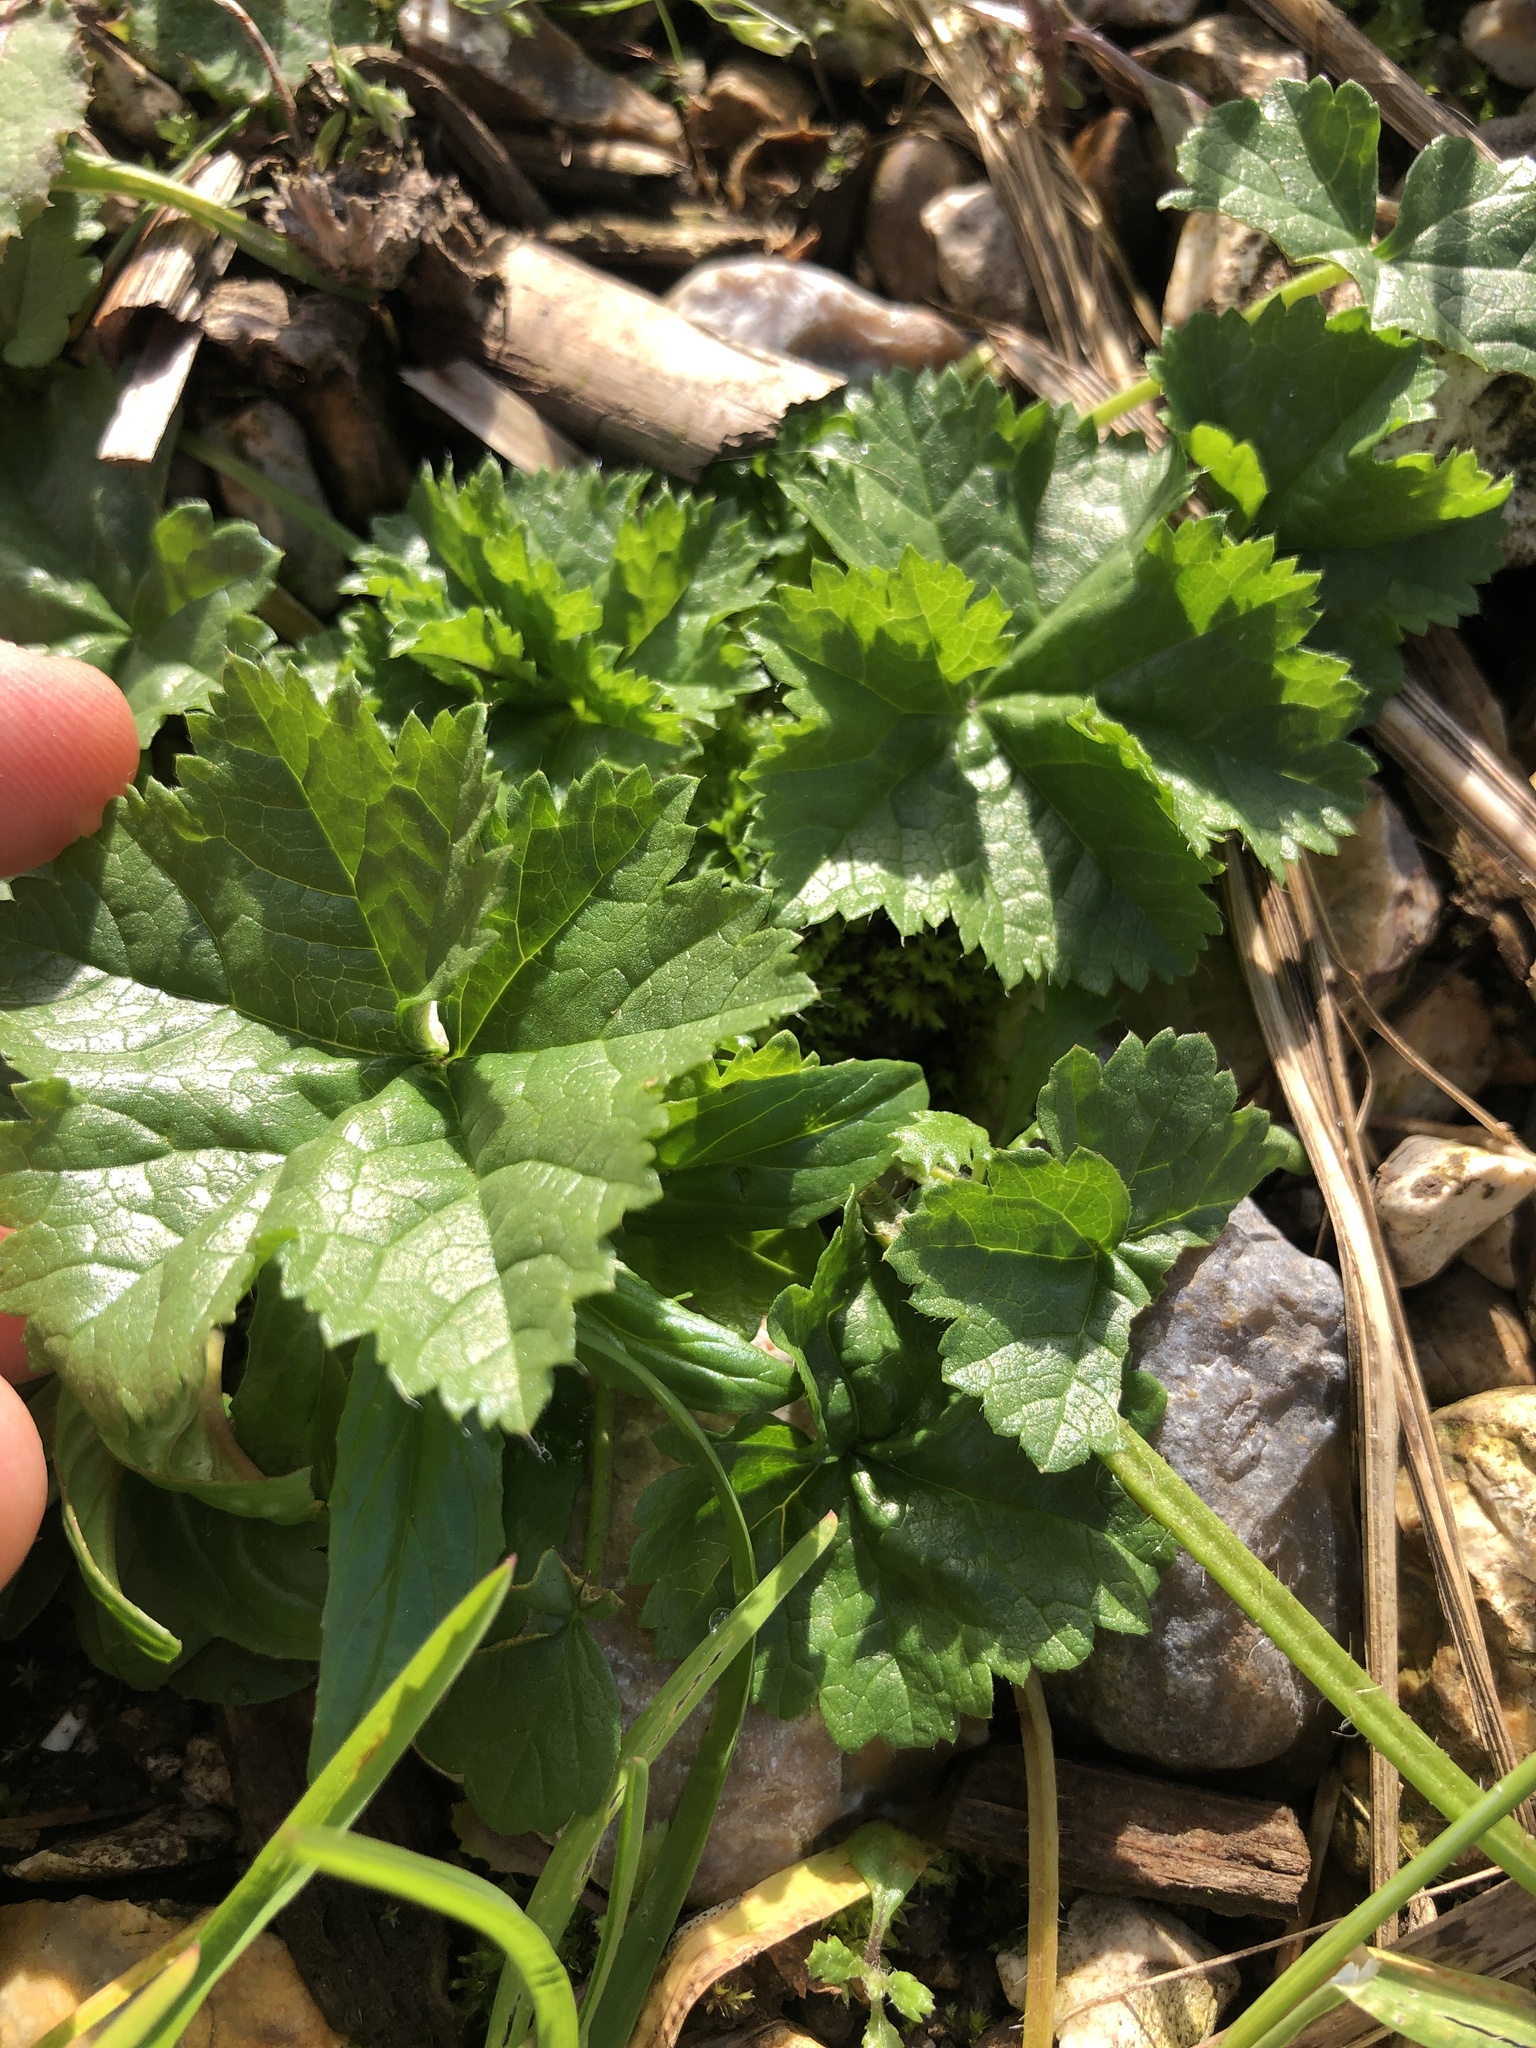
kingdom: Plantae
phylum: Tracheophyta
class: Magnoliopsida
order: Malvales
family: Malvaceae
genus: Malva
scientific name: Malva sylvestris
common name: Common mallow
